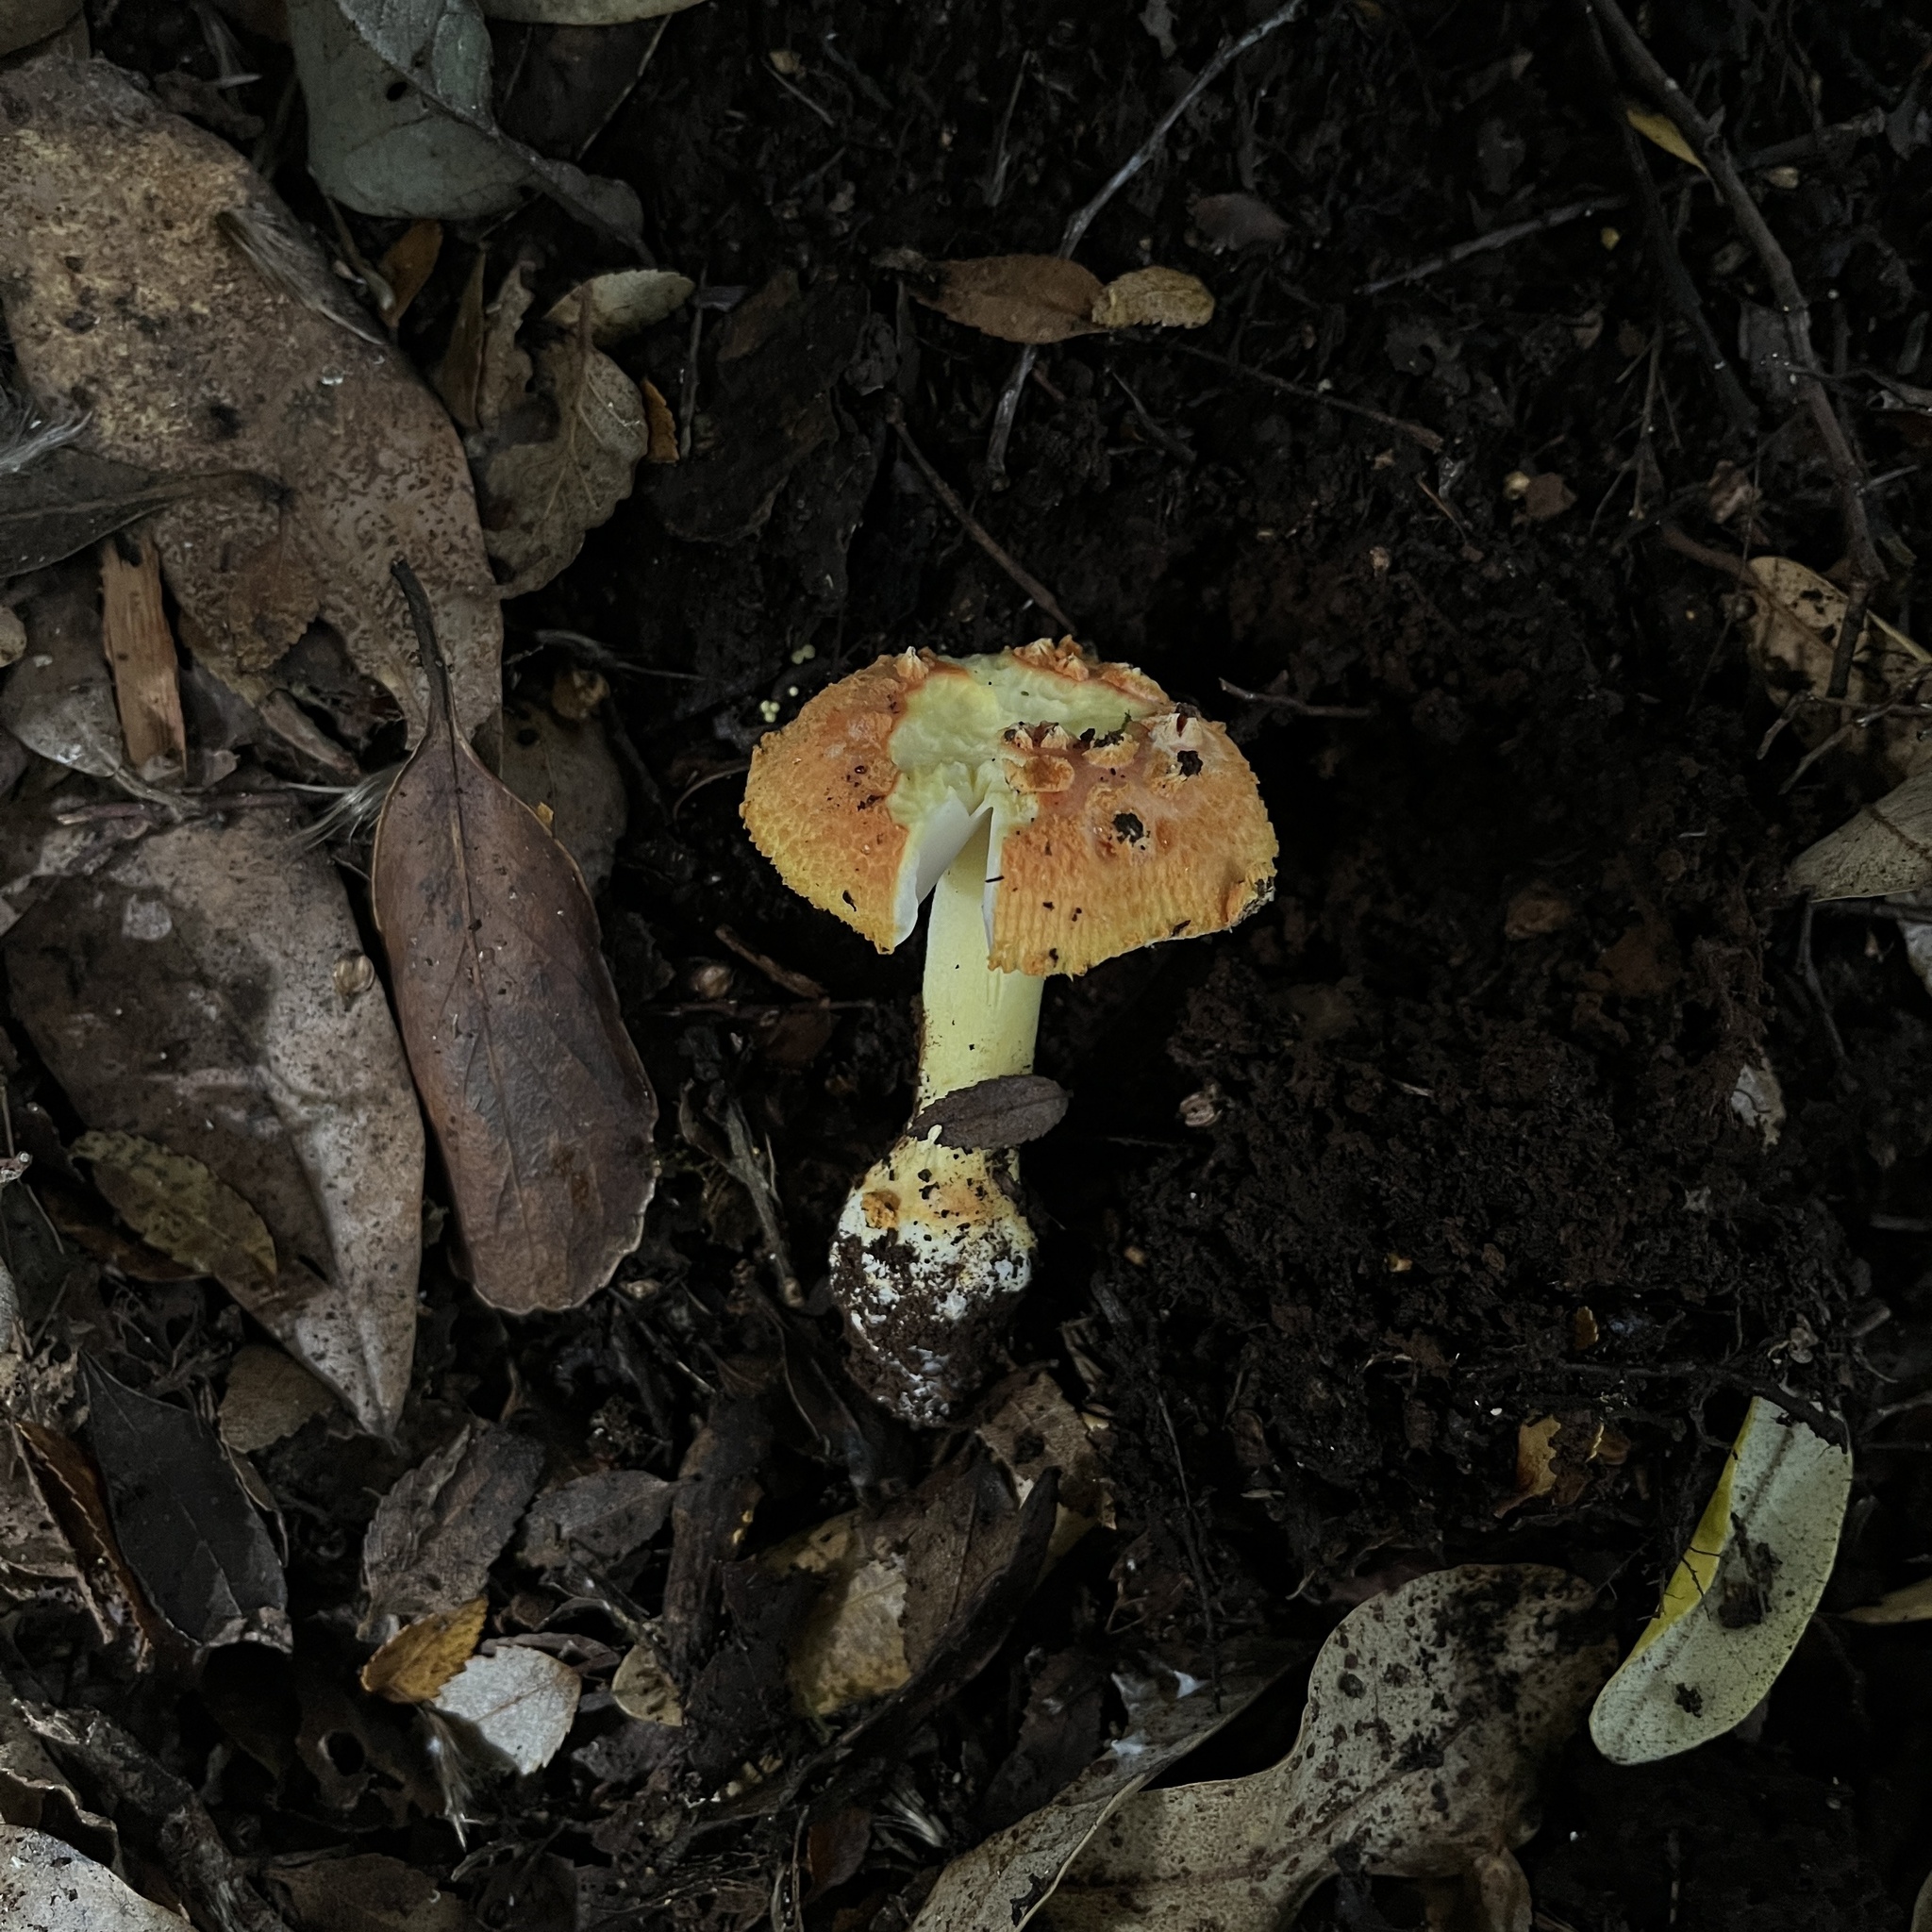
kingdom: Fungi
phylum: Basidiomycota
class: Agaricomycetes
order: Agaricales
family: Amanitaceae
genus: Amanita
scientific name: Amanita aurantiovelata
